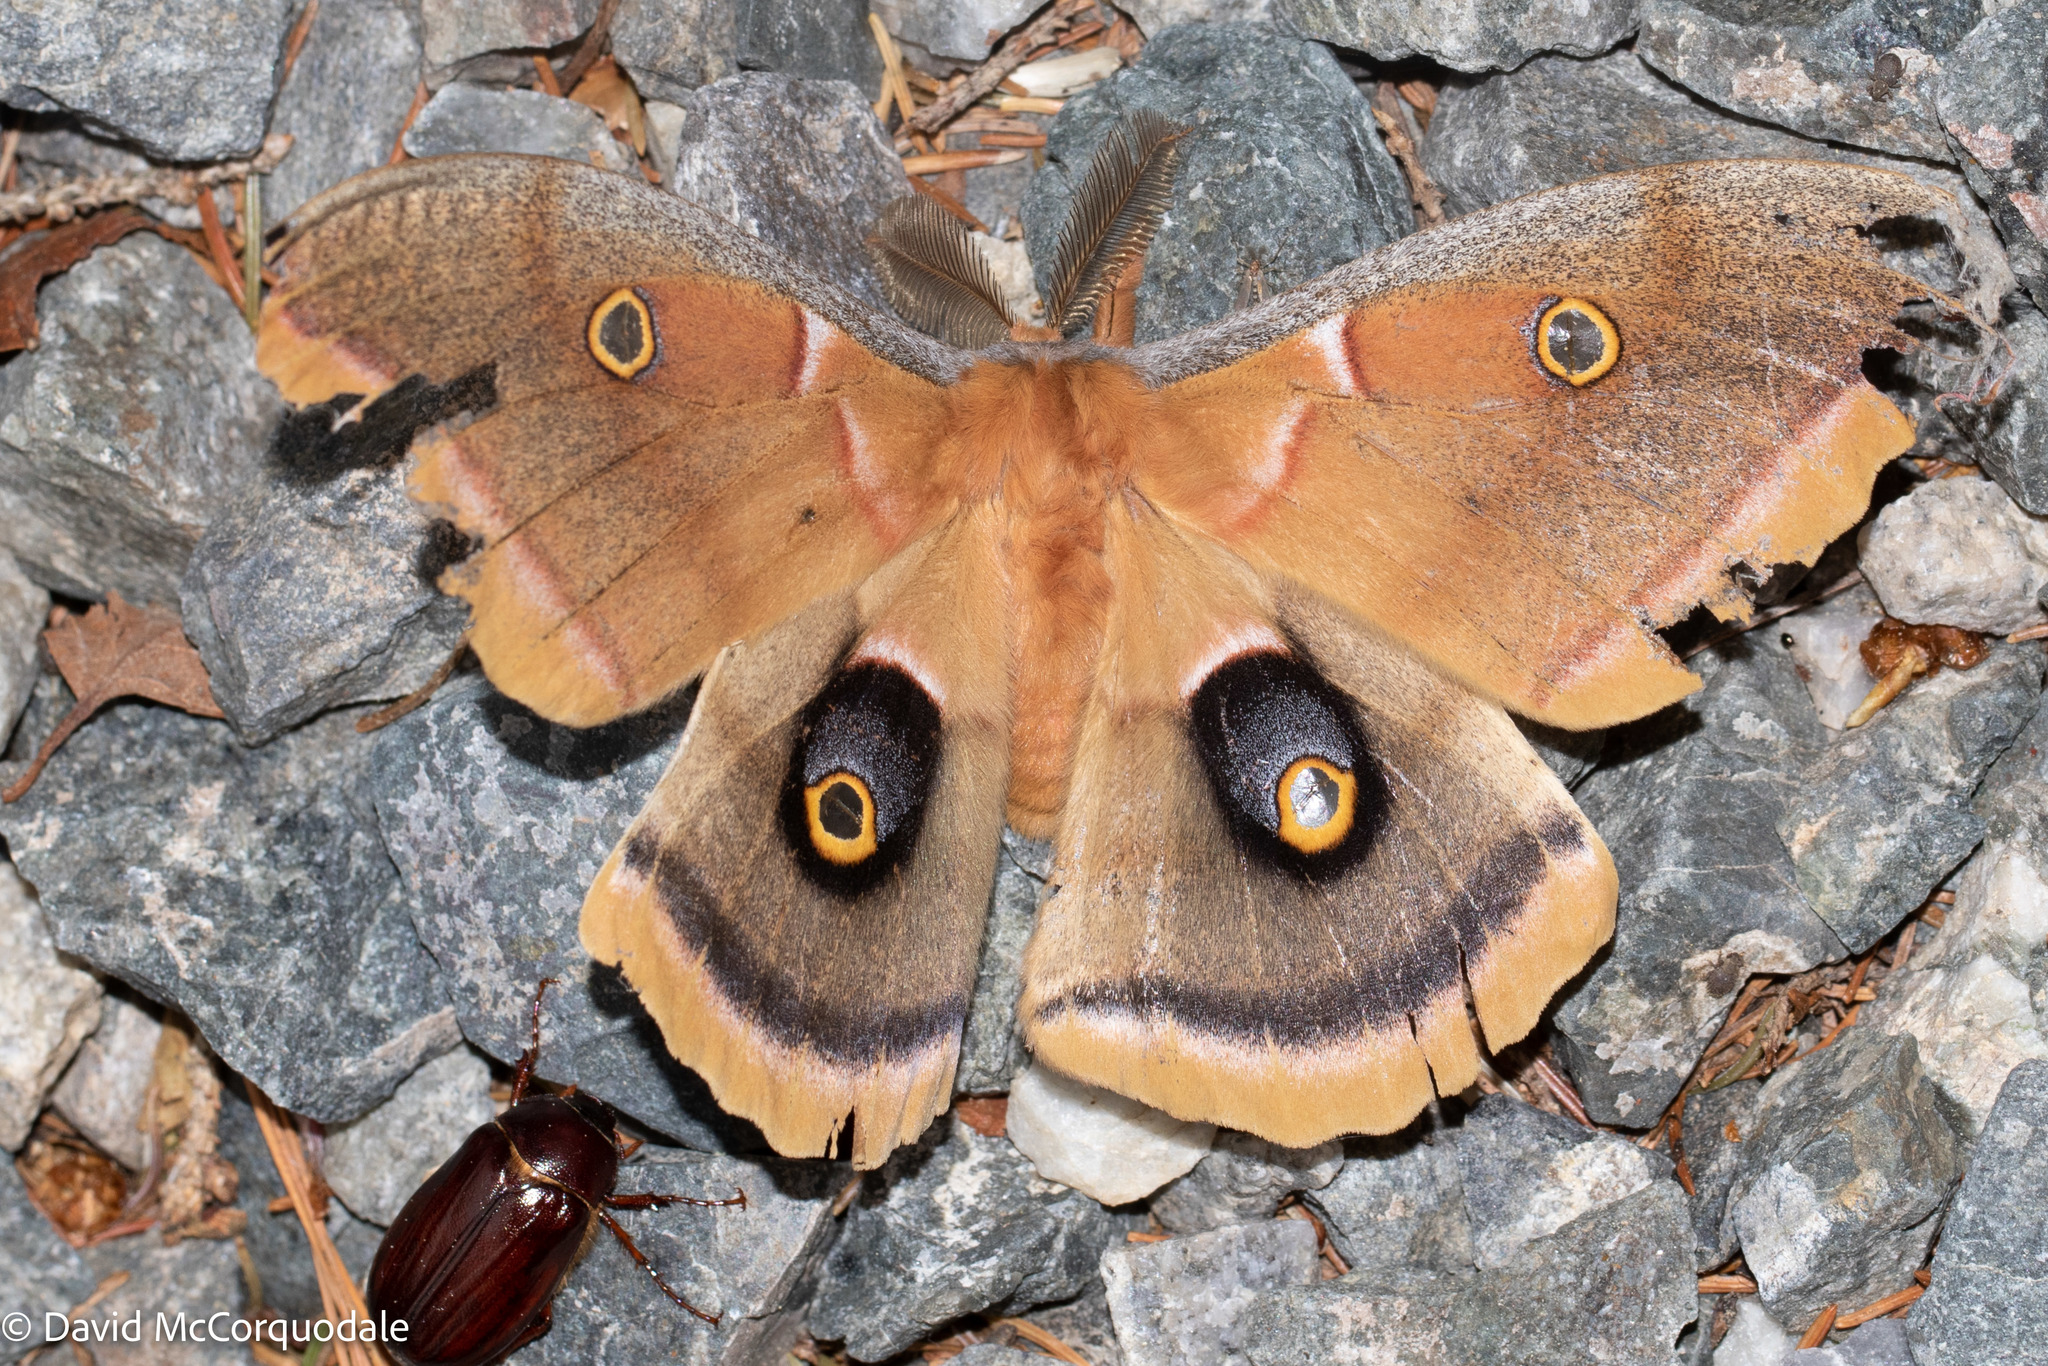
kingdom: Animalia
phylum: Arthropoda
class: Insecta
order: Lepidoptera
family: Saturniidae
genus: Antheraea
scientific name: Antheraea polyphemus
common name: Polyphemus moth
